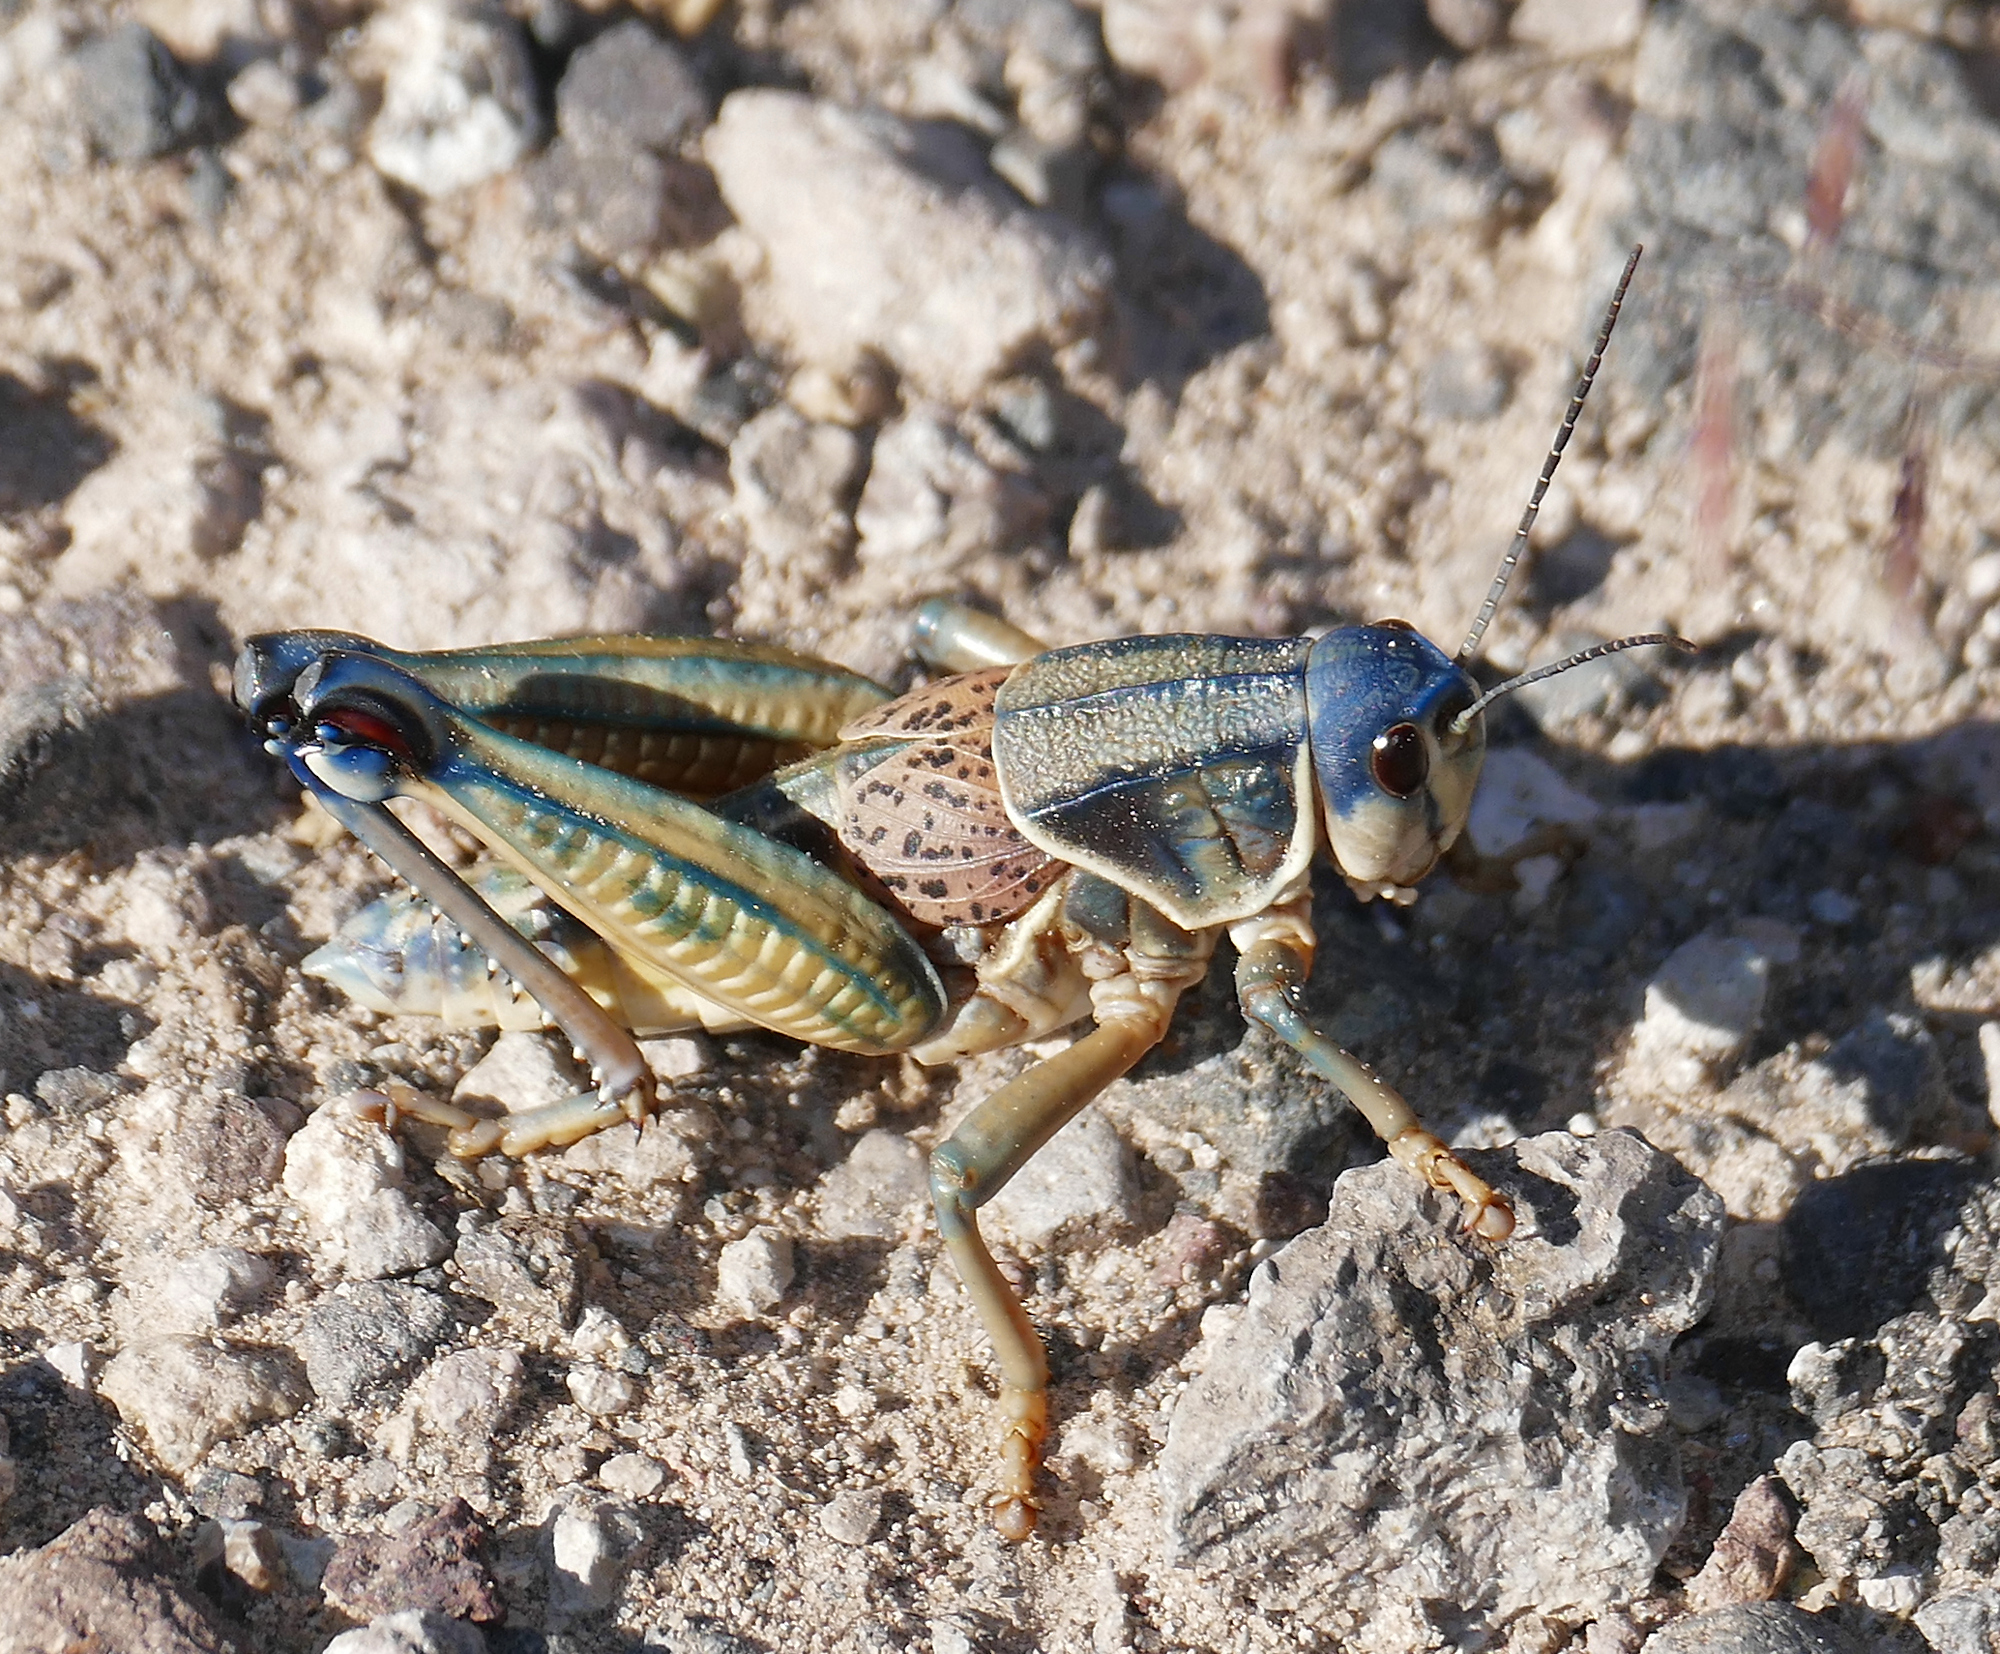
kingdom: Animalia
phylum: Arthropoda
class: Insecta
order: Orthoptera
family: Romaleidae
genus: Brachystola
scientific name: Brachystola magna
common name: Plains lubber grasshopper
